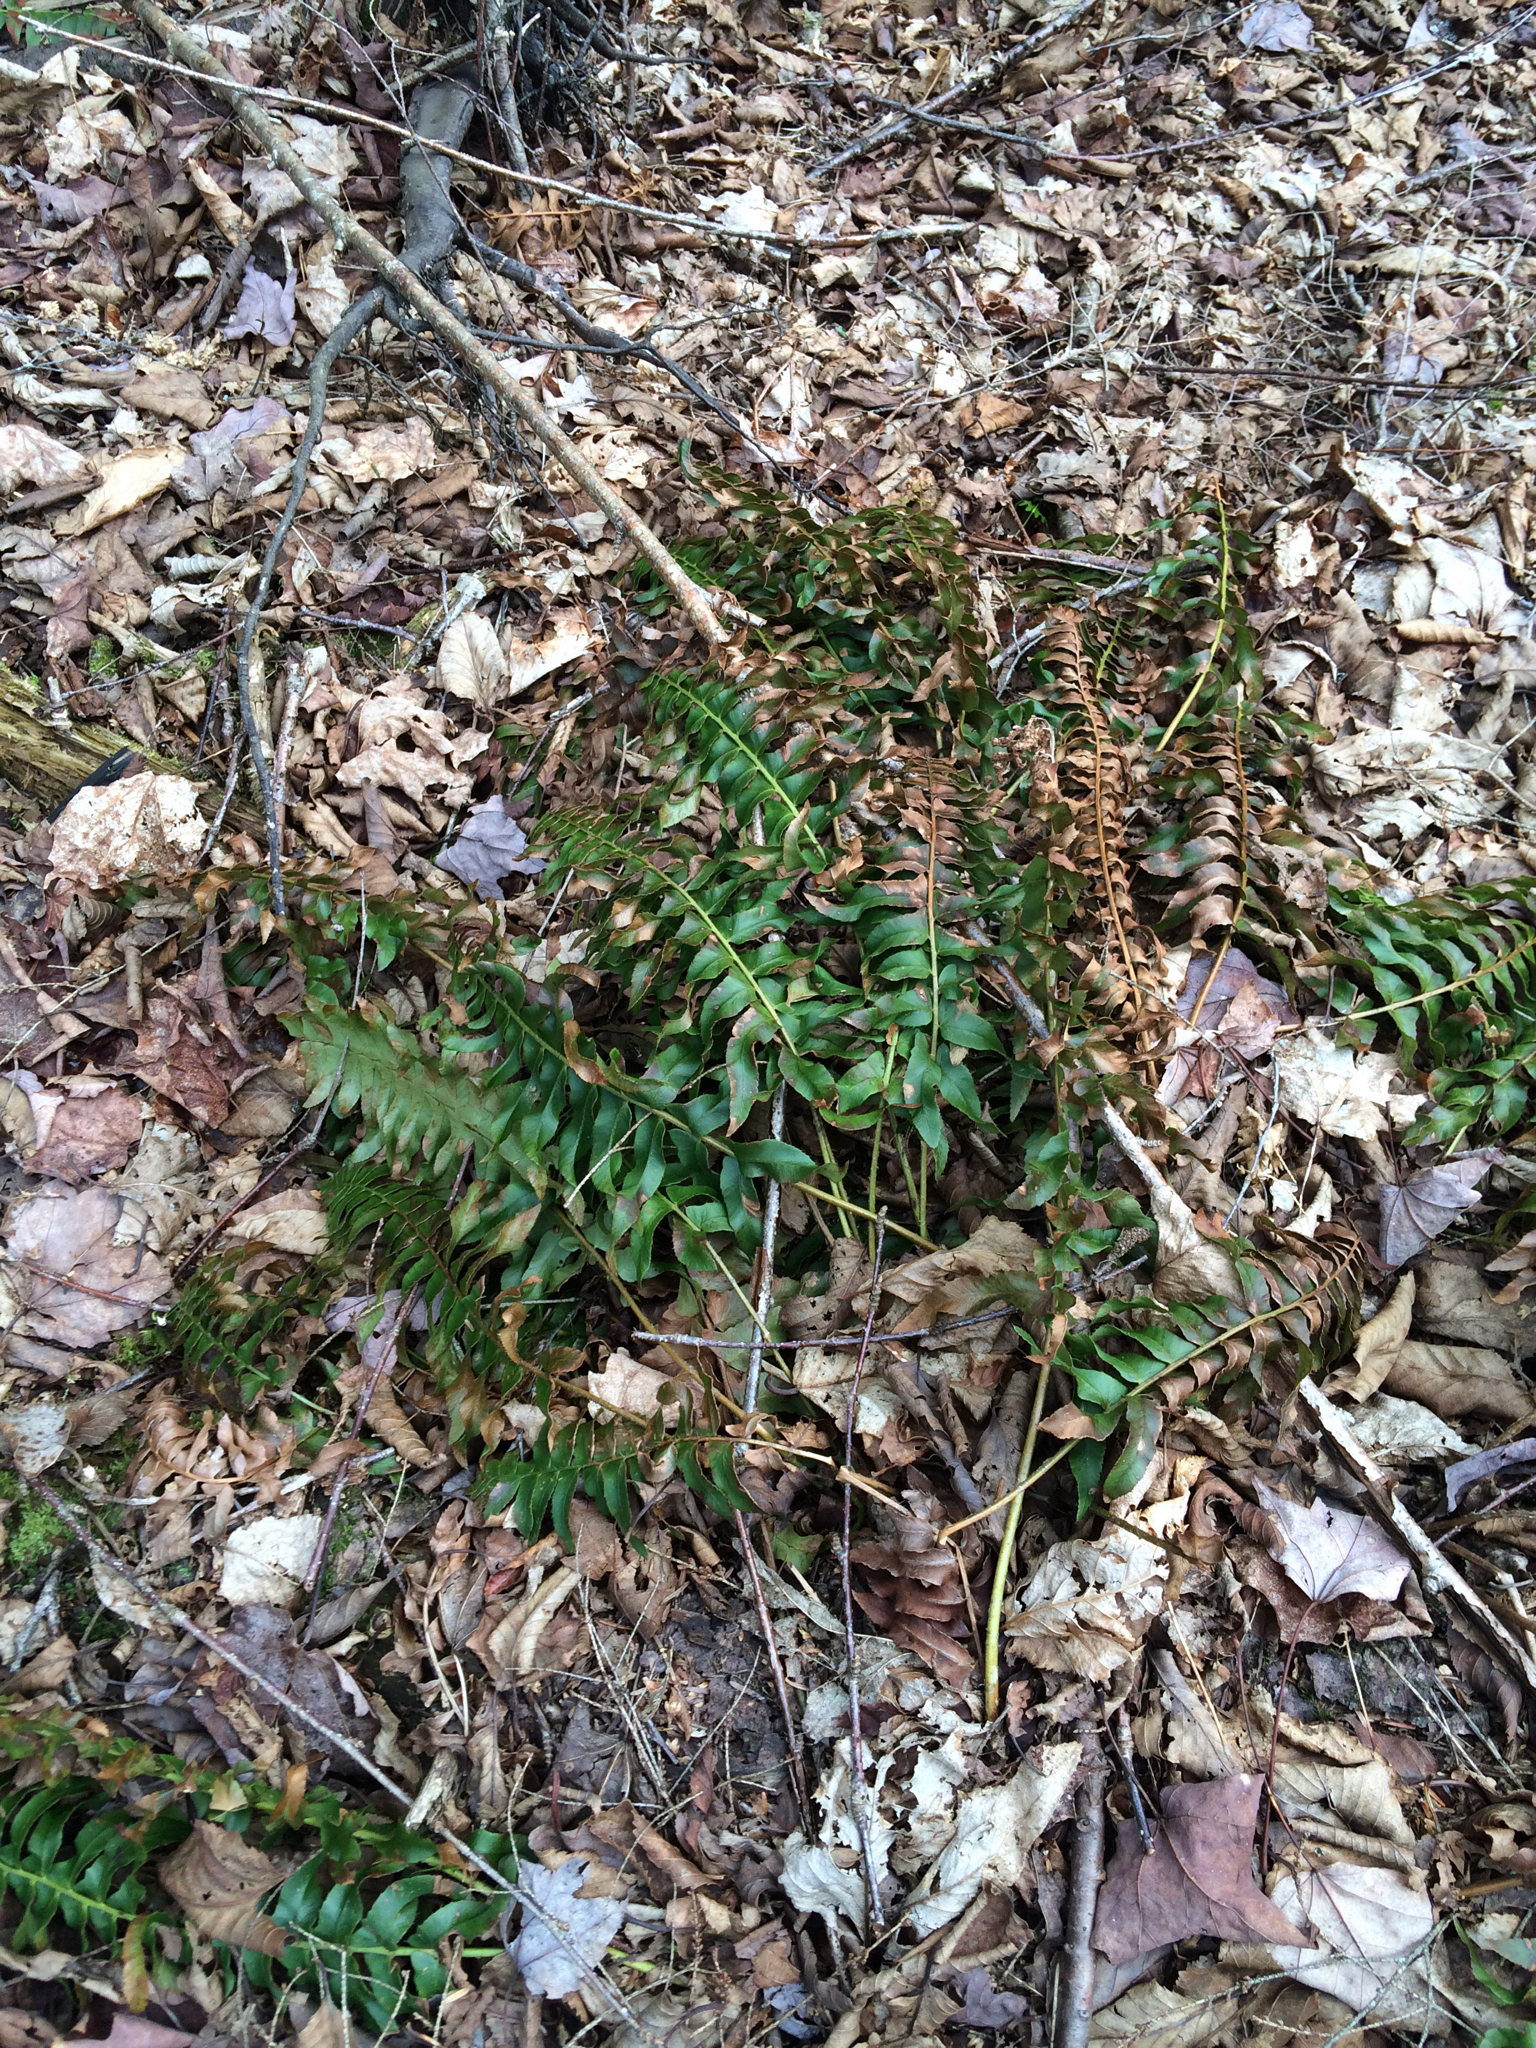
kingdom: Plantae
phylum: Tracheophyta
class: Polypodiopsida
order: Polypodiales
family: Dryopteridaceae
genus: Polystichum
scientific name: Polystichum acrostichoides
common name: Christmas fern
